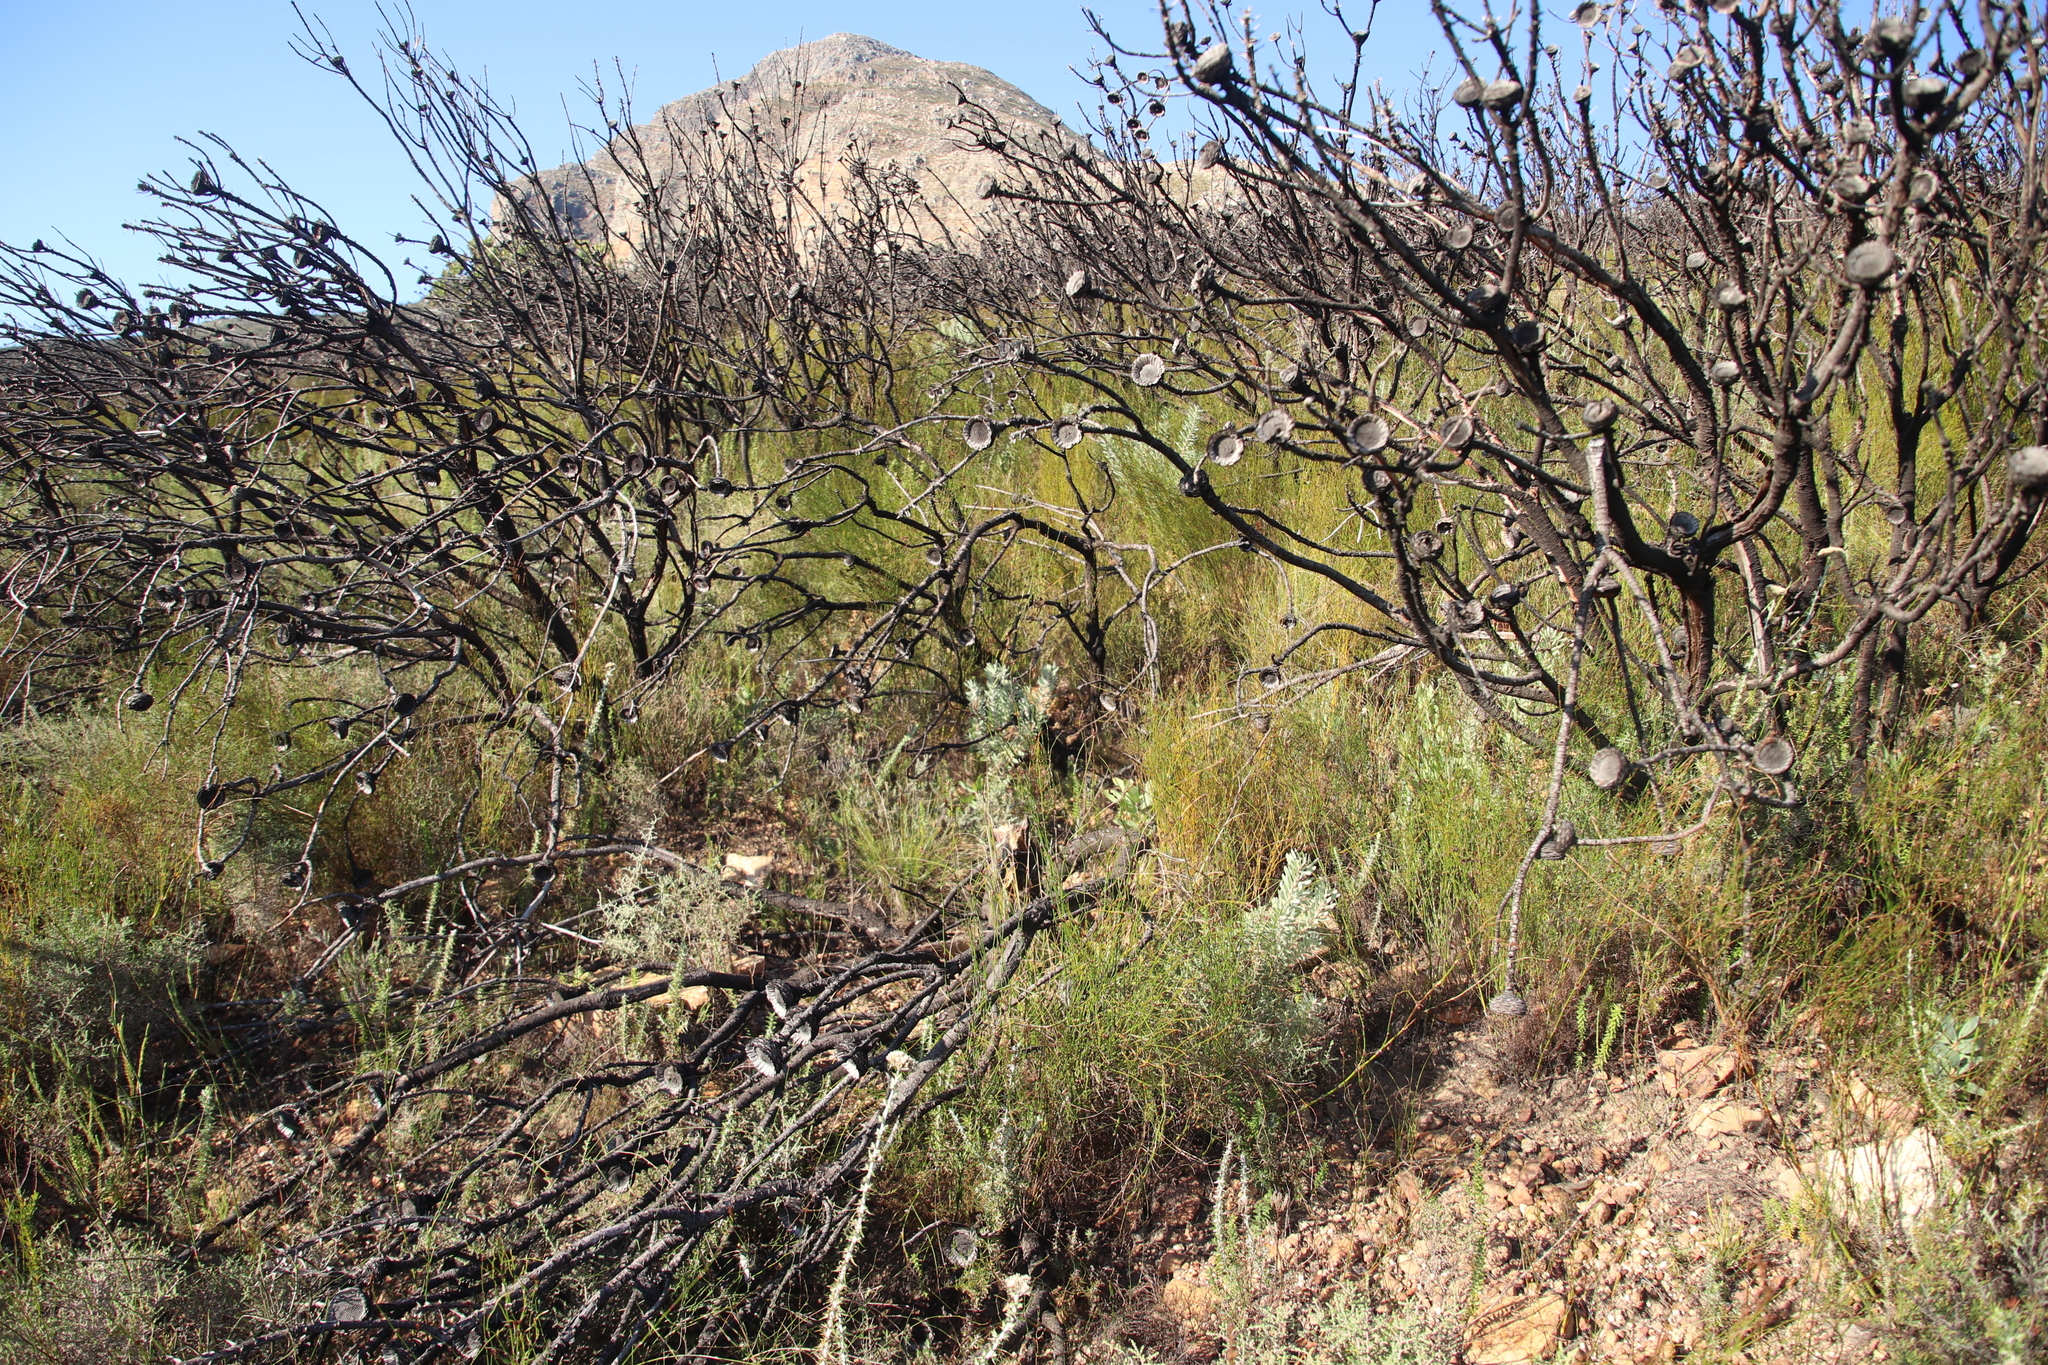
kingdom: Plantae
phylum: Tracheophyta
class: Magnoliopsida
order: Proteales
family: Proteaceae
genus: Leucadendron
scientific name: Leucadendron rubrum
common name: Spinning top
